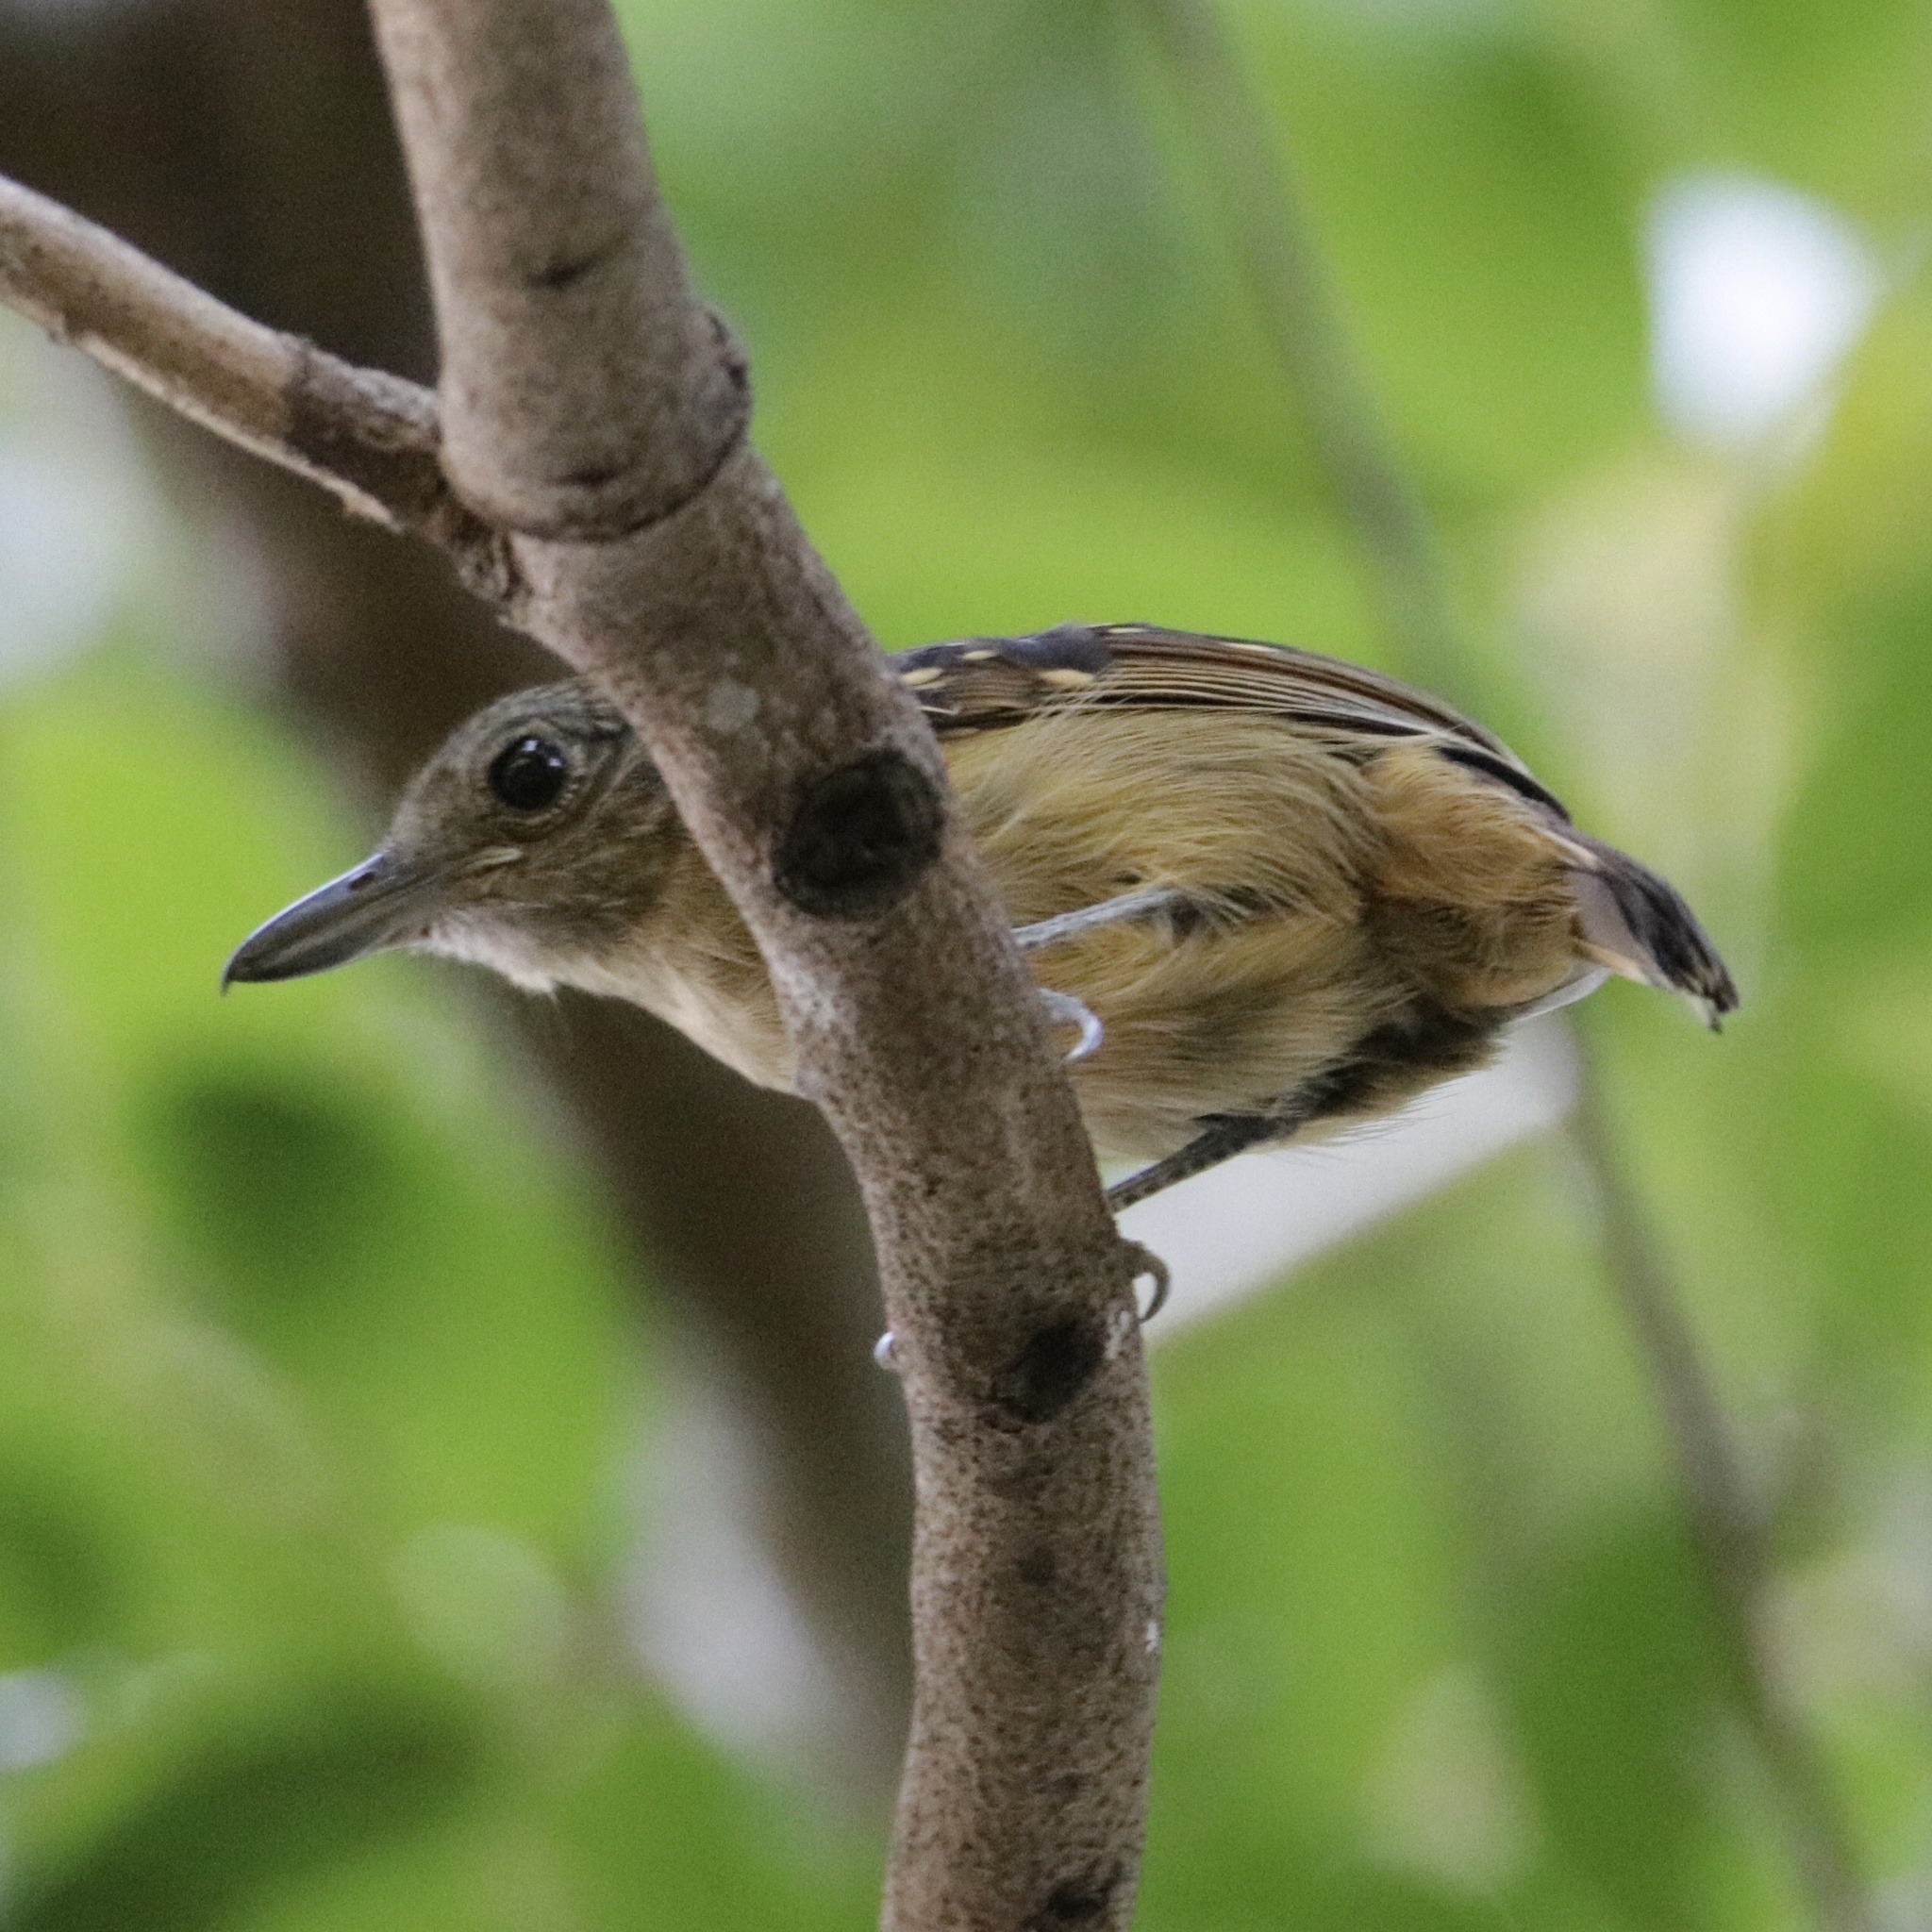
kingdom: Animalia
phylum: Chordata
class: Aves
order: Passeriformes
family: Thamnophilidae
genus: Thamnophilus
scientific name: Thamnophilus atrinucha
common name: Black-crowned antshrike
